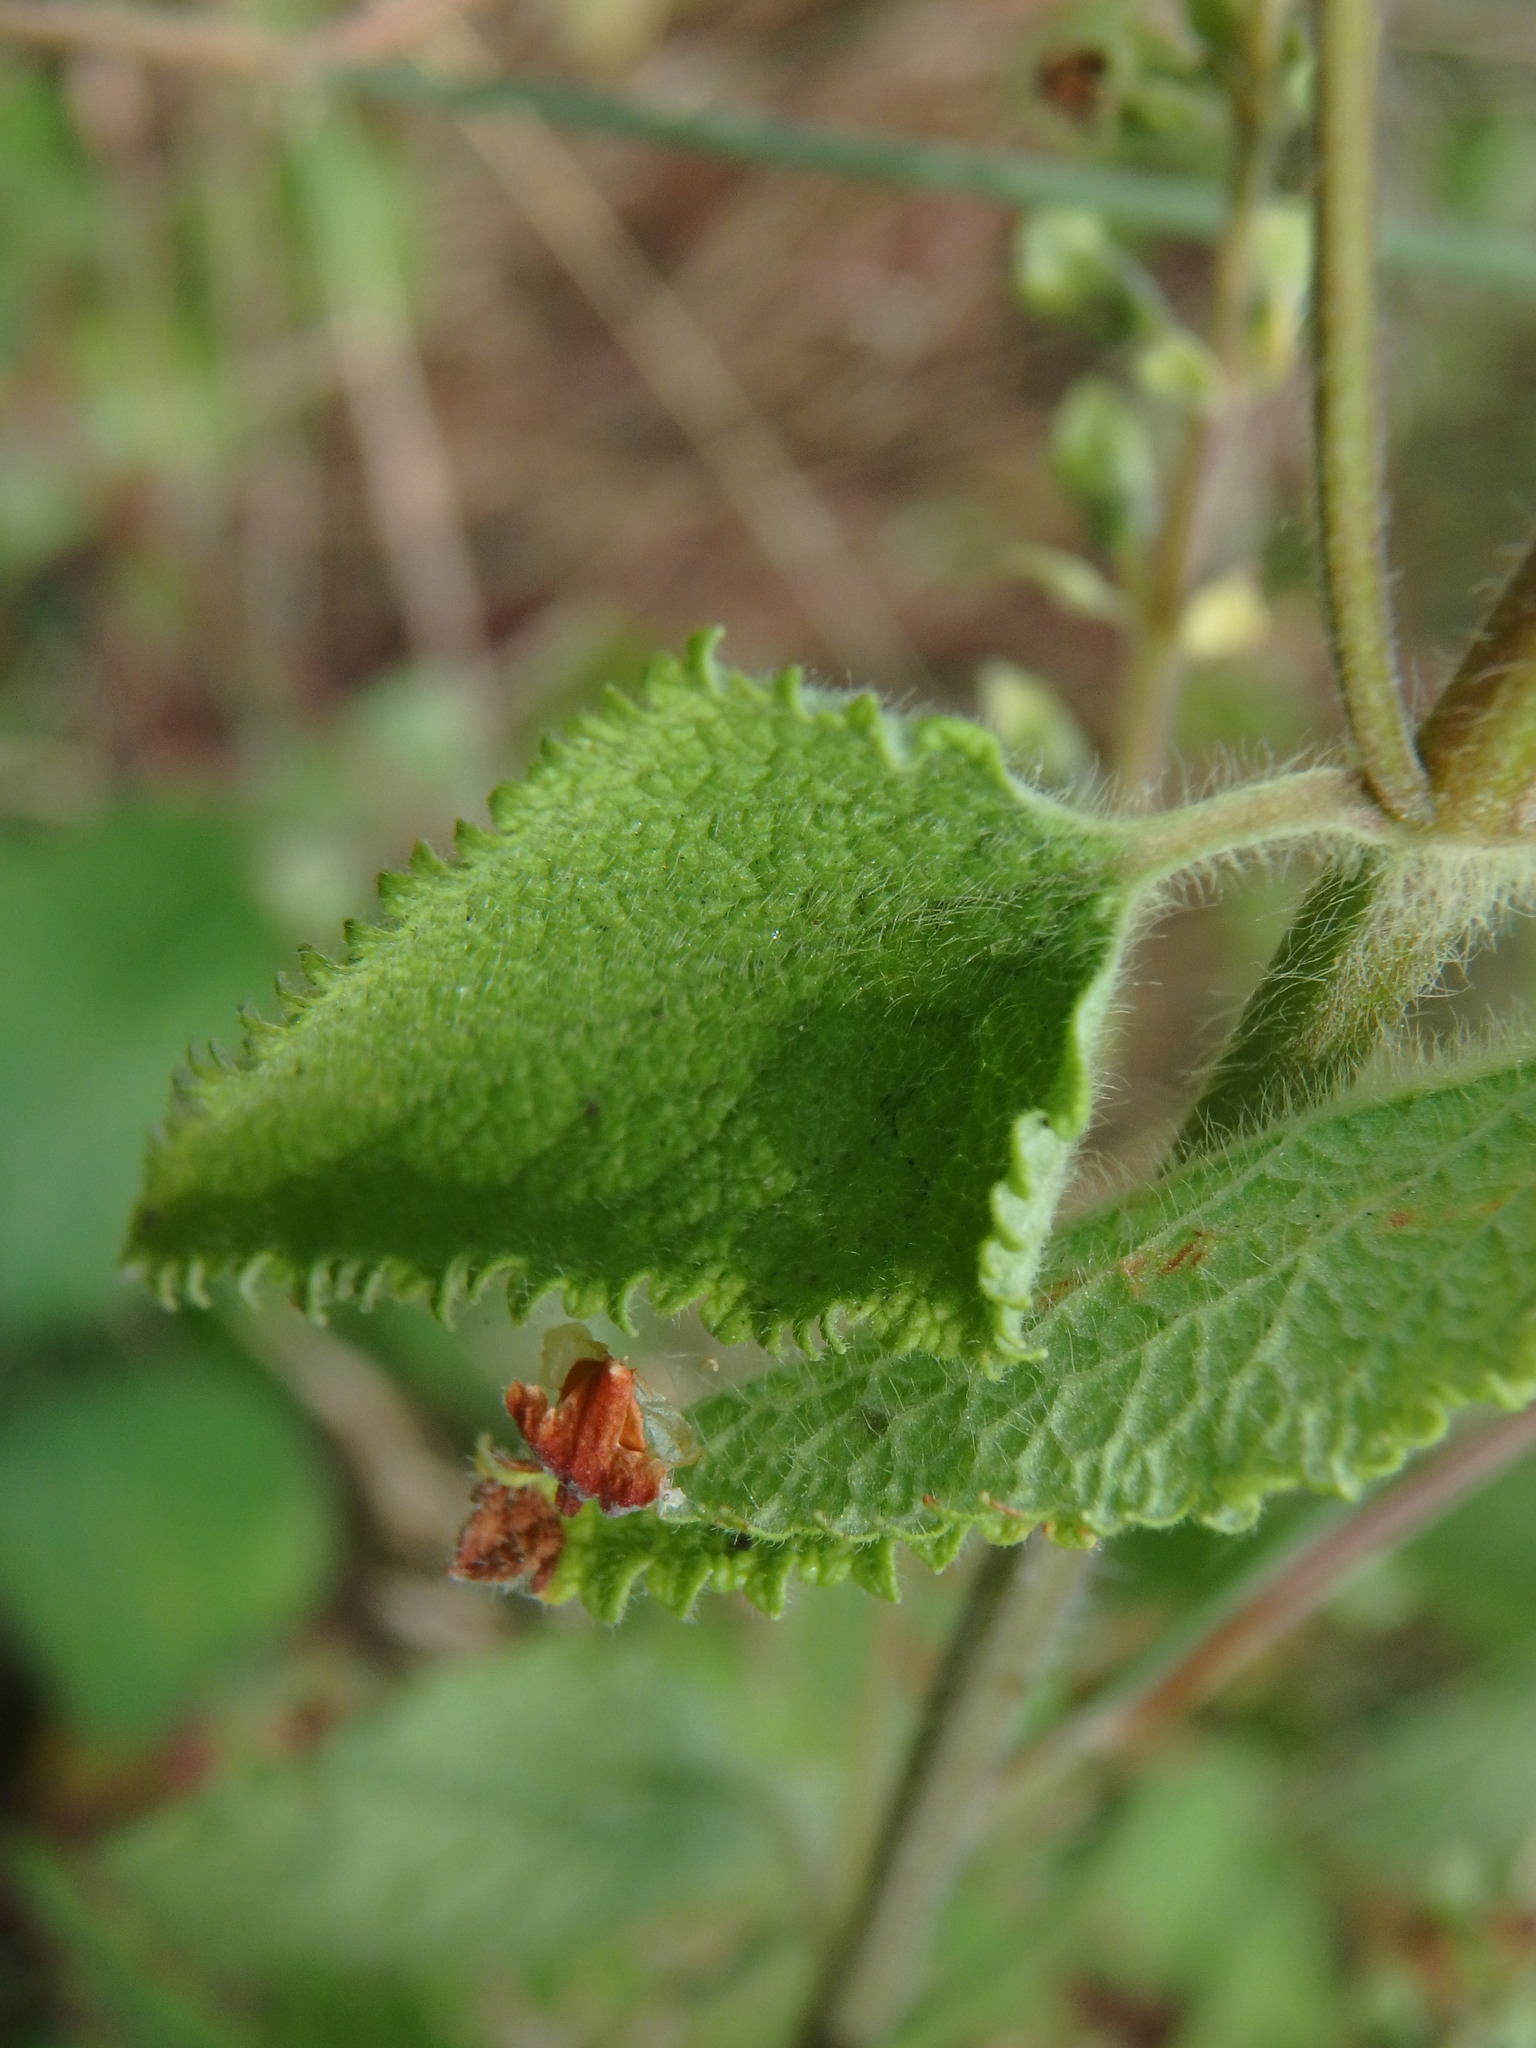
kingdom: Plantae
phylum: Tracheophyta
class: Magnoliopsida
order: Lamiales
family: Lamiaceae
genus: Teucrium
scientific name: Teucrium scorodonia
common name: Woodland germander
